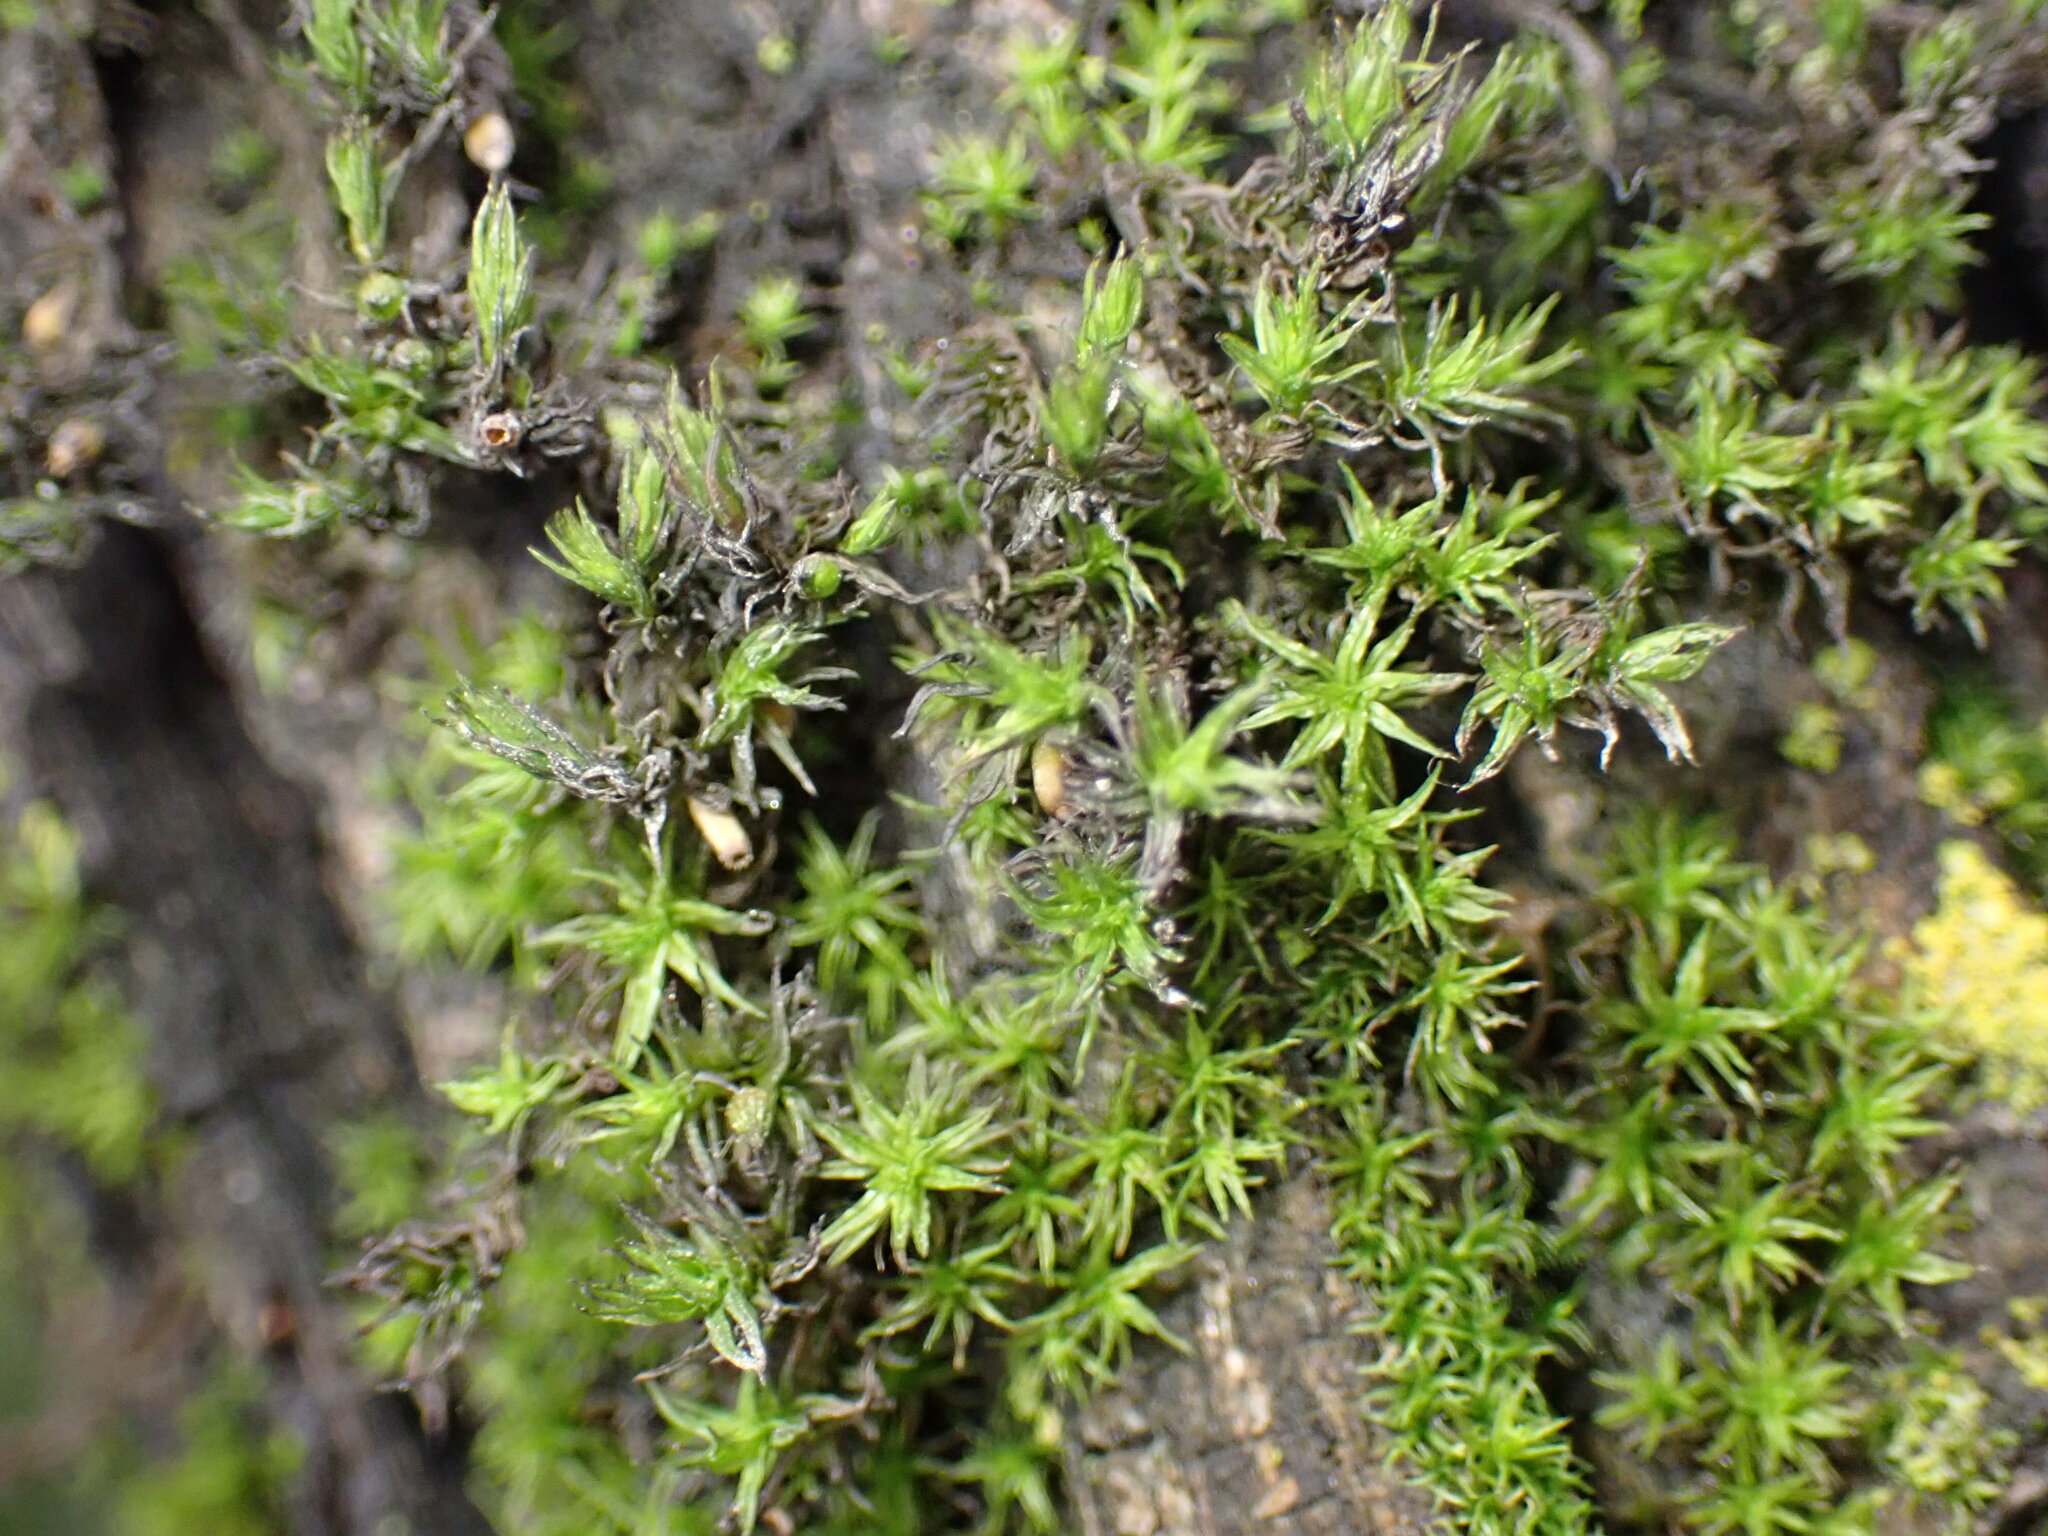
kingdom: Plantae
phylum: Bryophyta
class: Bryopsida
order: Orthotrichales
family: Orthotrichaceae
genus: Pulvigera
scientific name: Pulvigera papillosa
